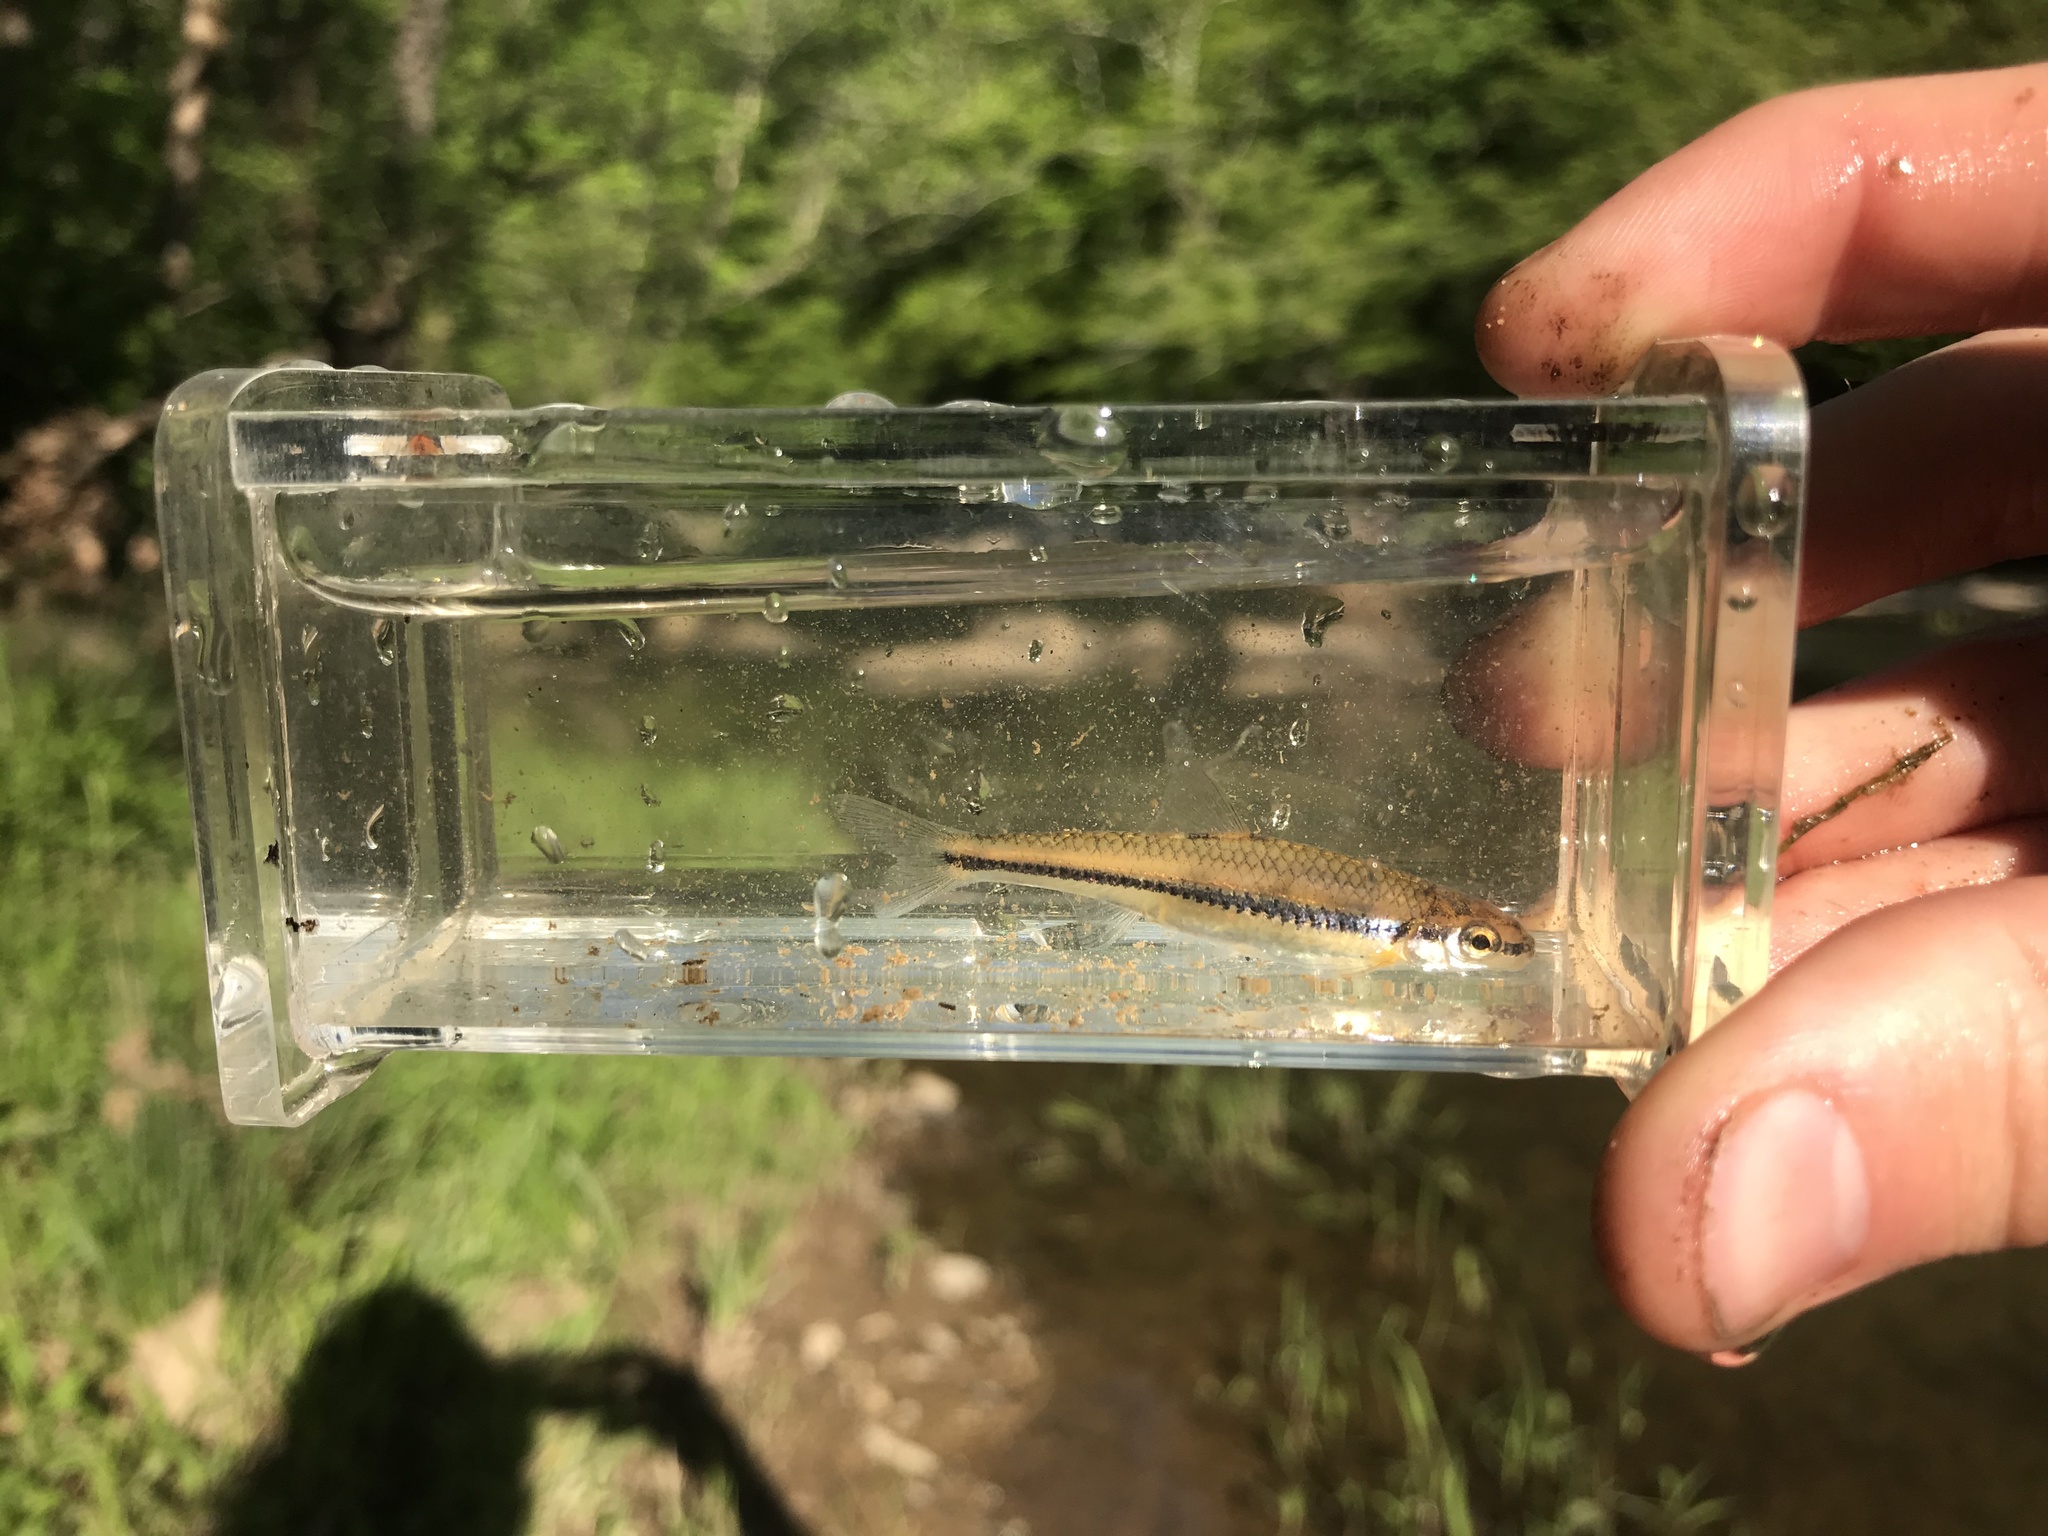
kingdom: Animalia
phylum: Chordata
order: Cypriniformes
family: Cyprinidae
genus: Notropis
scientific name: Notropis
